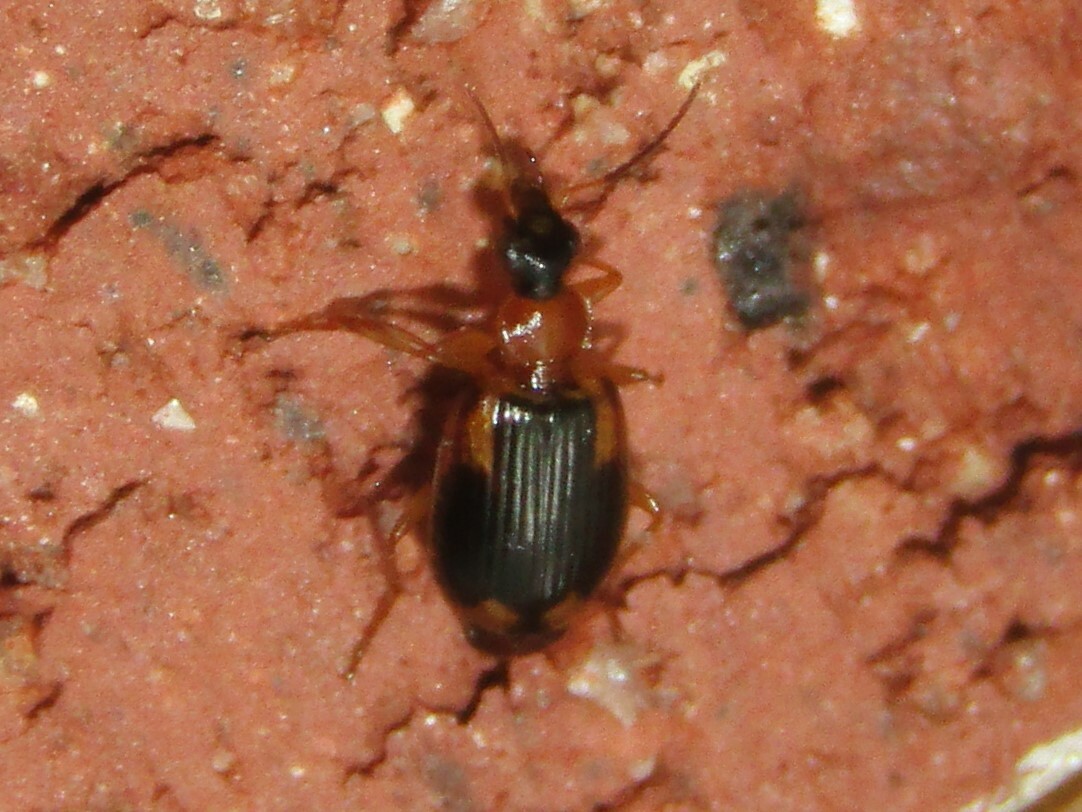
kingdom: Animalia
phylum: Arthropoda
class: Insecta
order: Coleoptera
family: Carabidae
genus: Lebia
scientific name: Lebia analis
